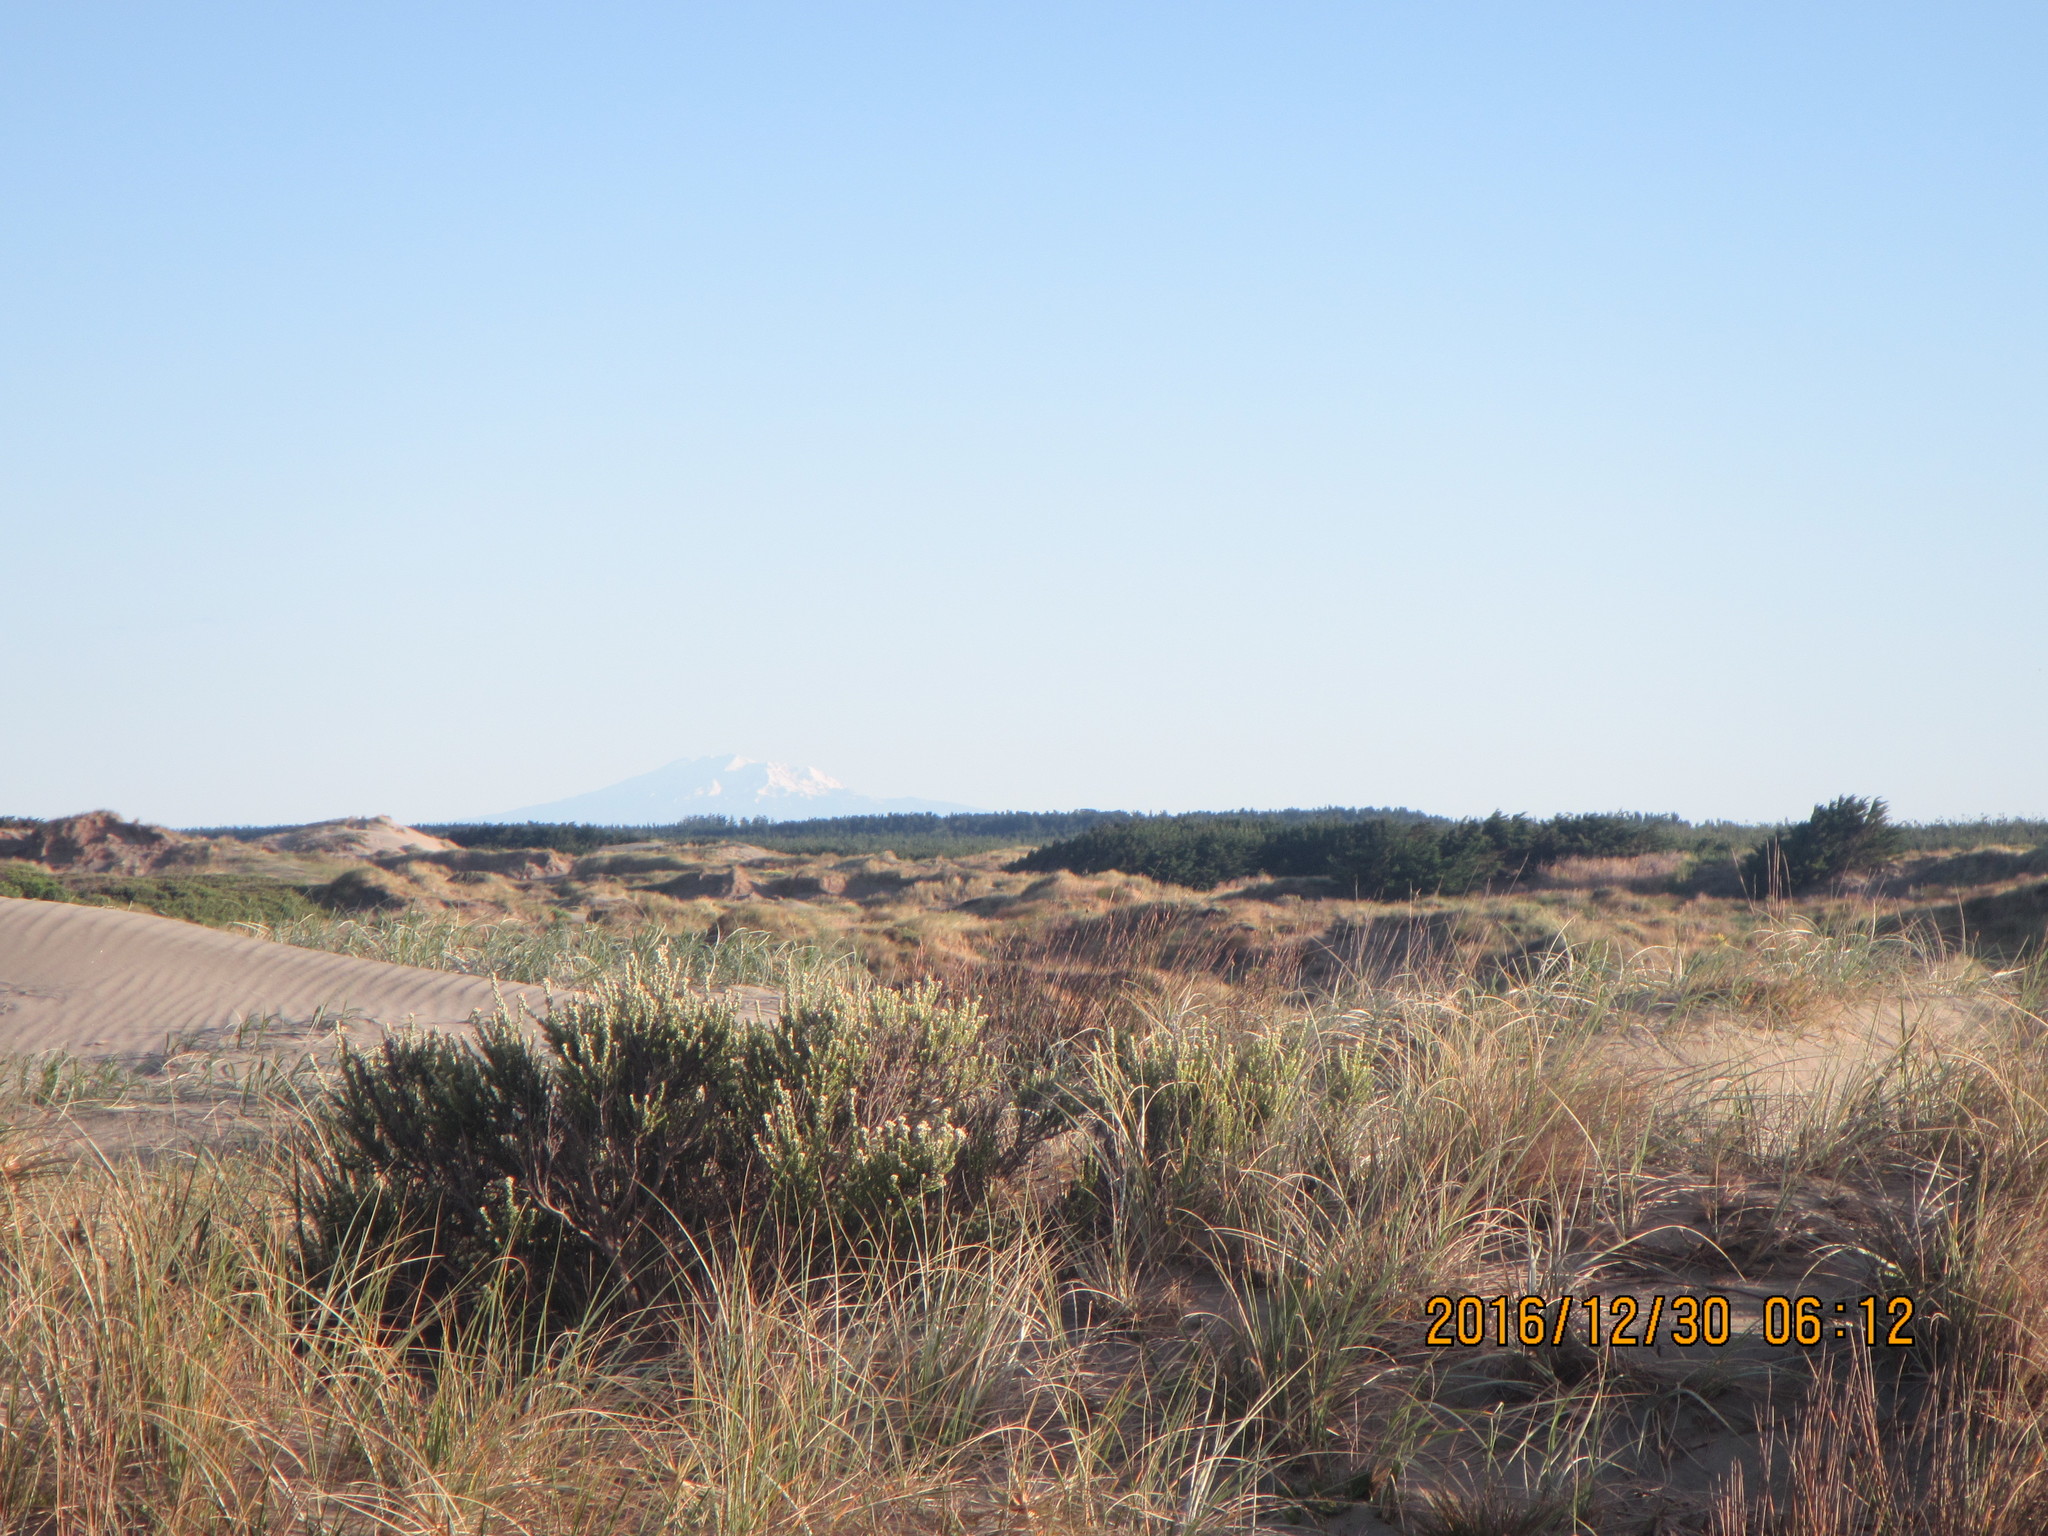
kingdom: Plantae
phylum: Tracheophyta
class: Magnoliopsida
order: Asterales
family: Asteraceae
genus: Ozothamnus
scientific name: Ozothamnus leptophyllus
